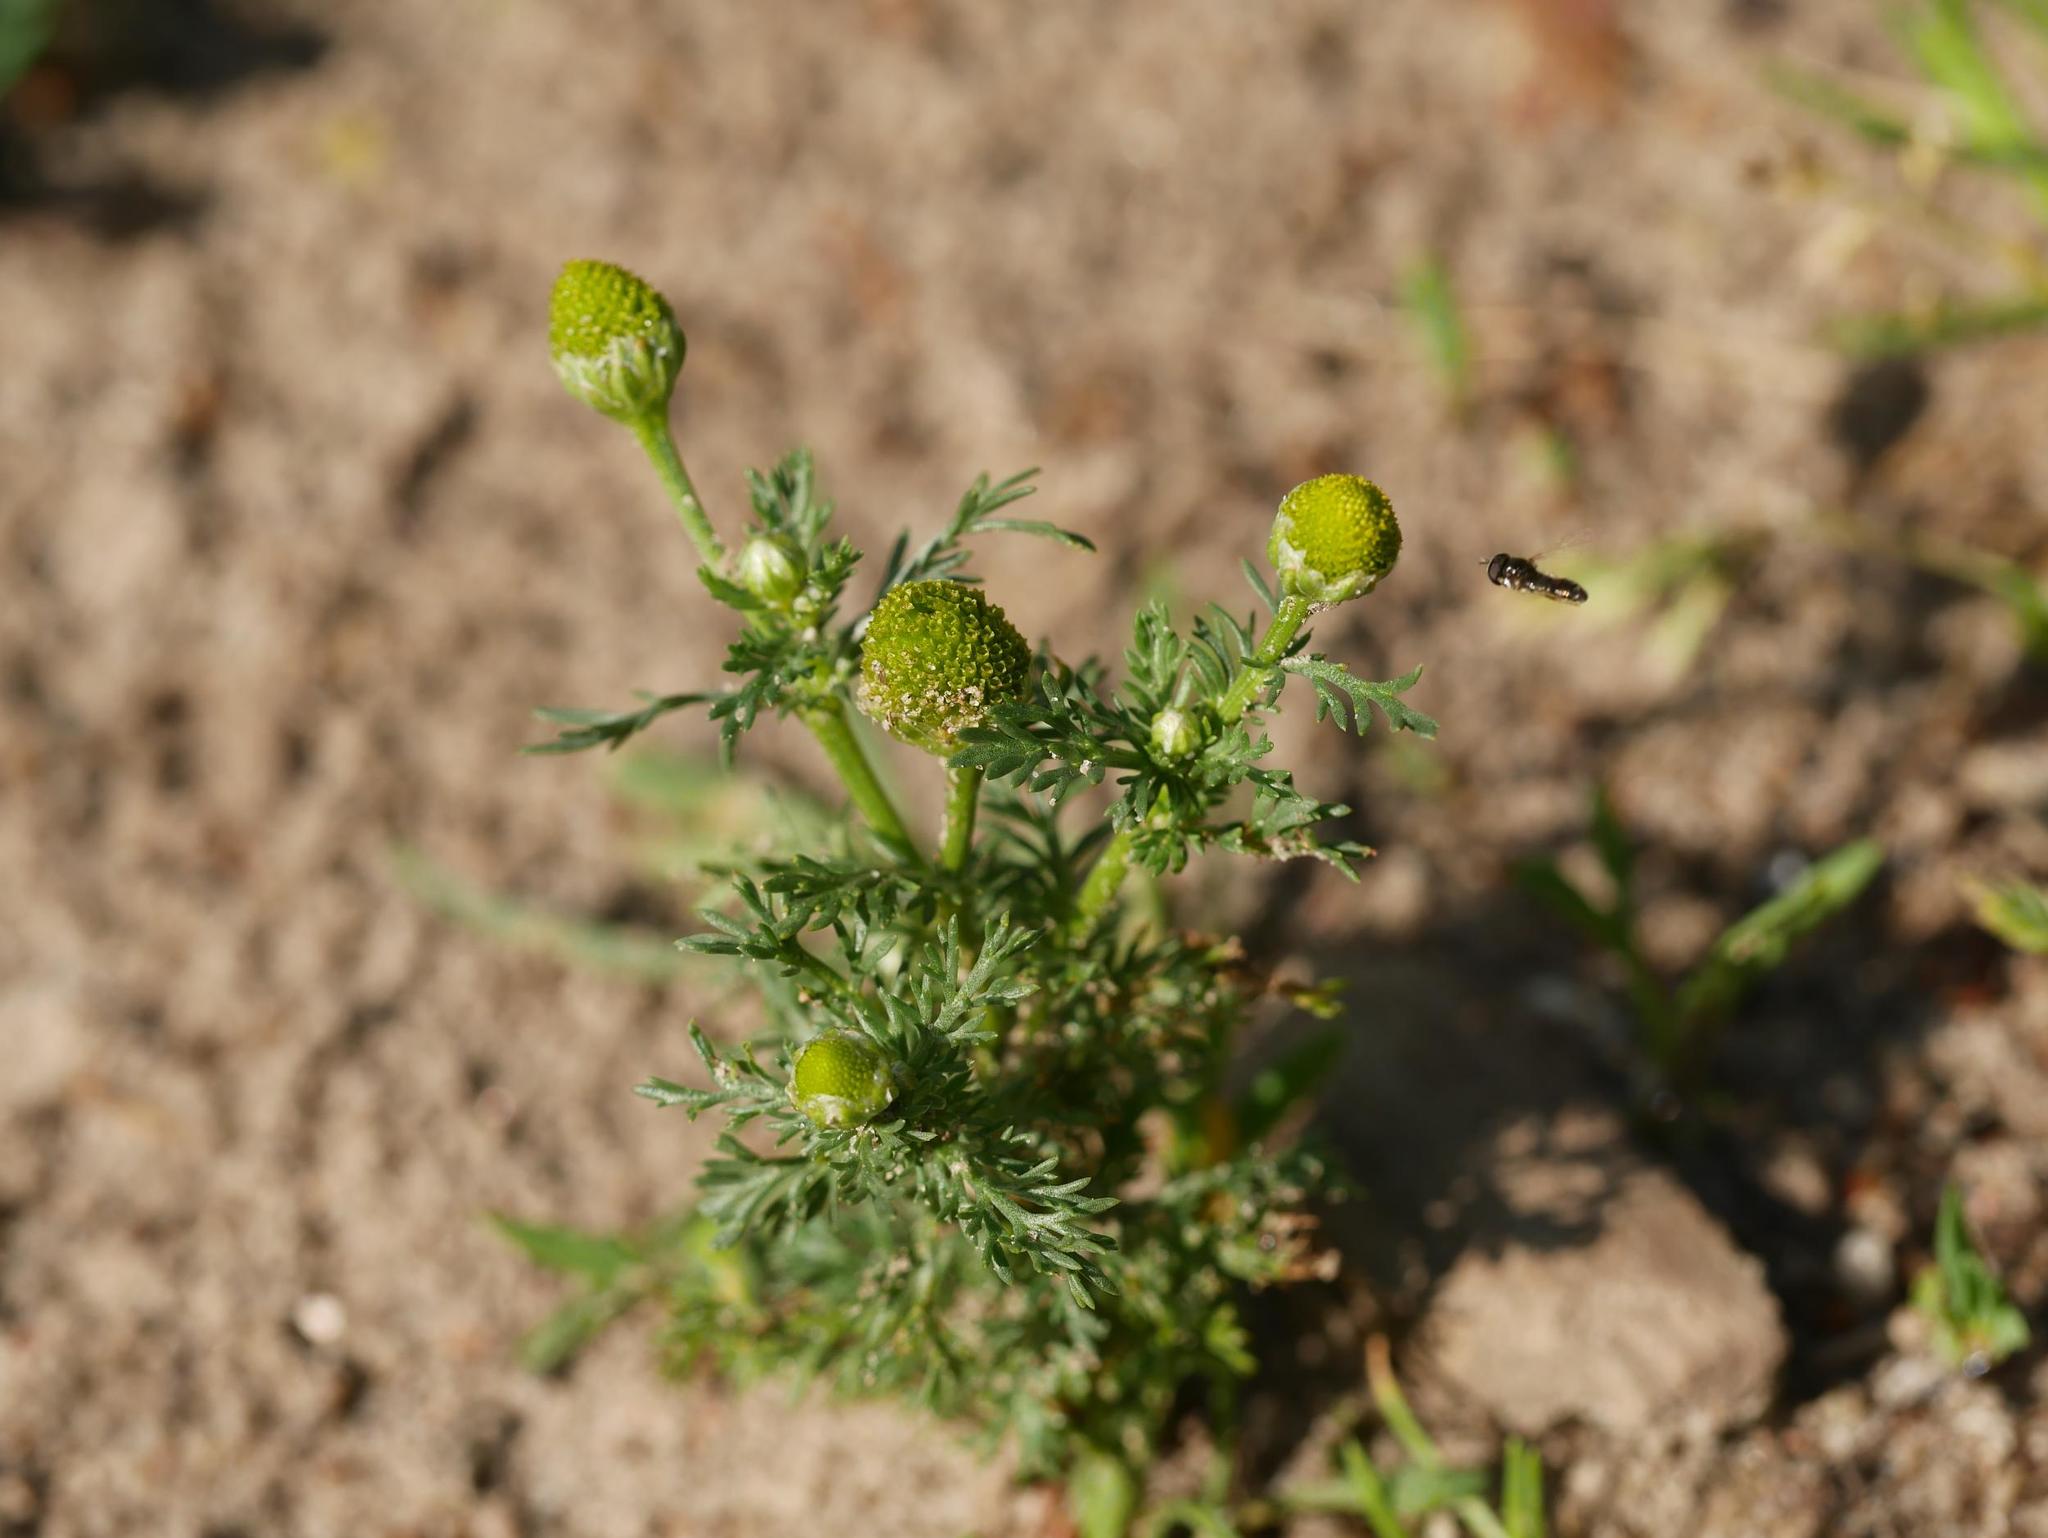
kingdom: Plantae
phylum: Tracheophyta
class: Magnoliopsida
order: Asterales
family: Asteraceae
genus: Matricaria
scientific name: Matricaria discoidea
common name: Disc mayweed
